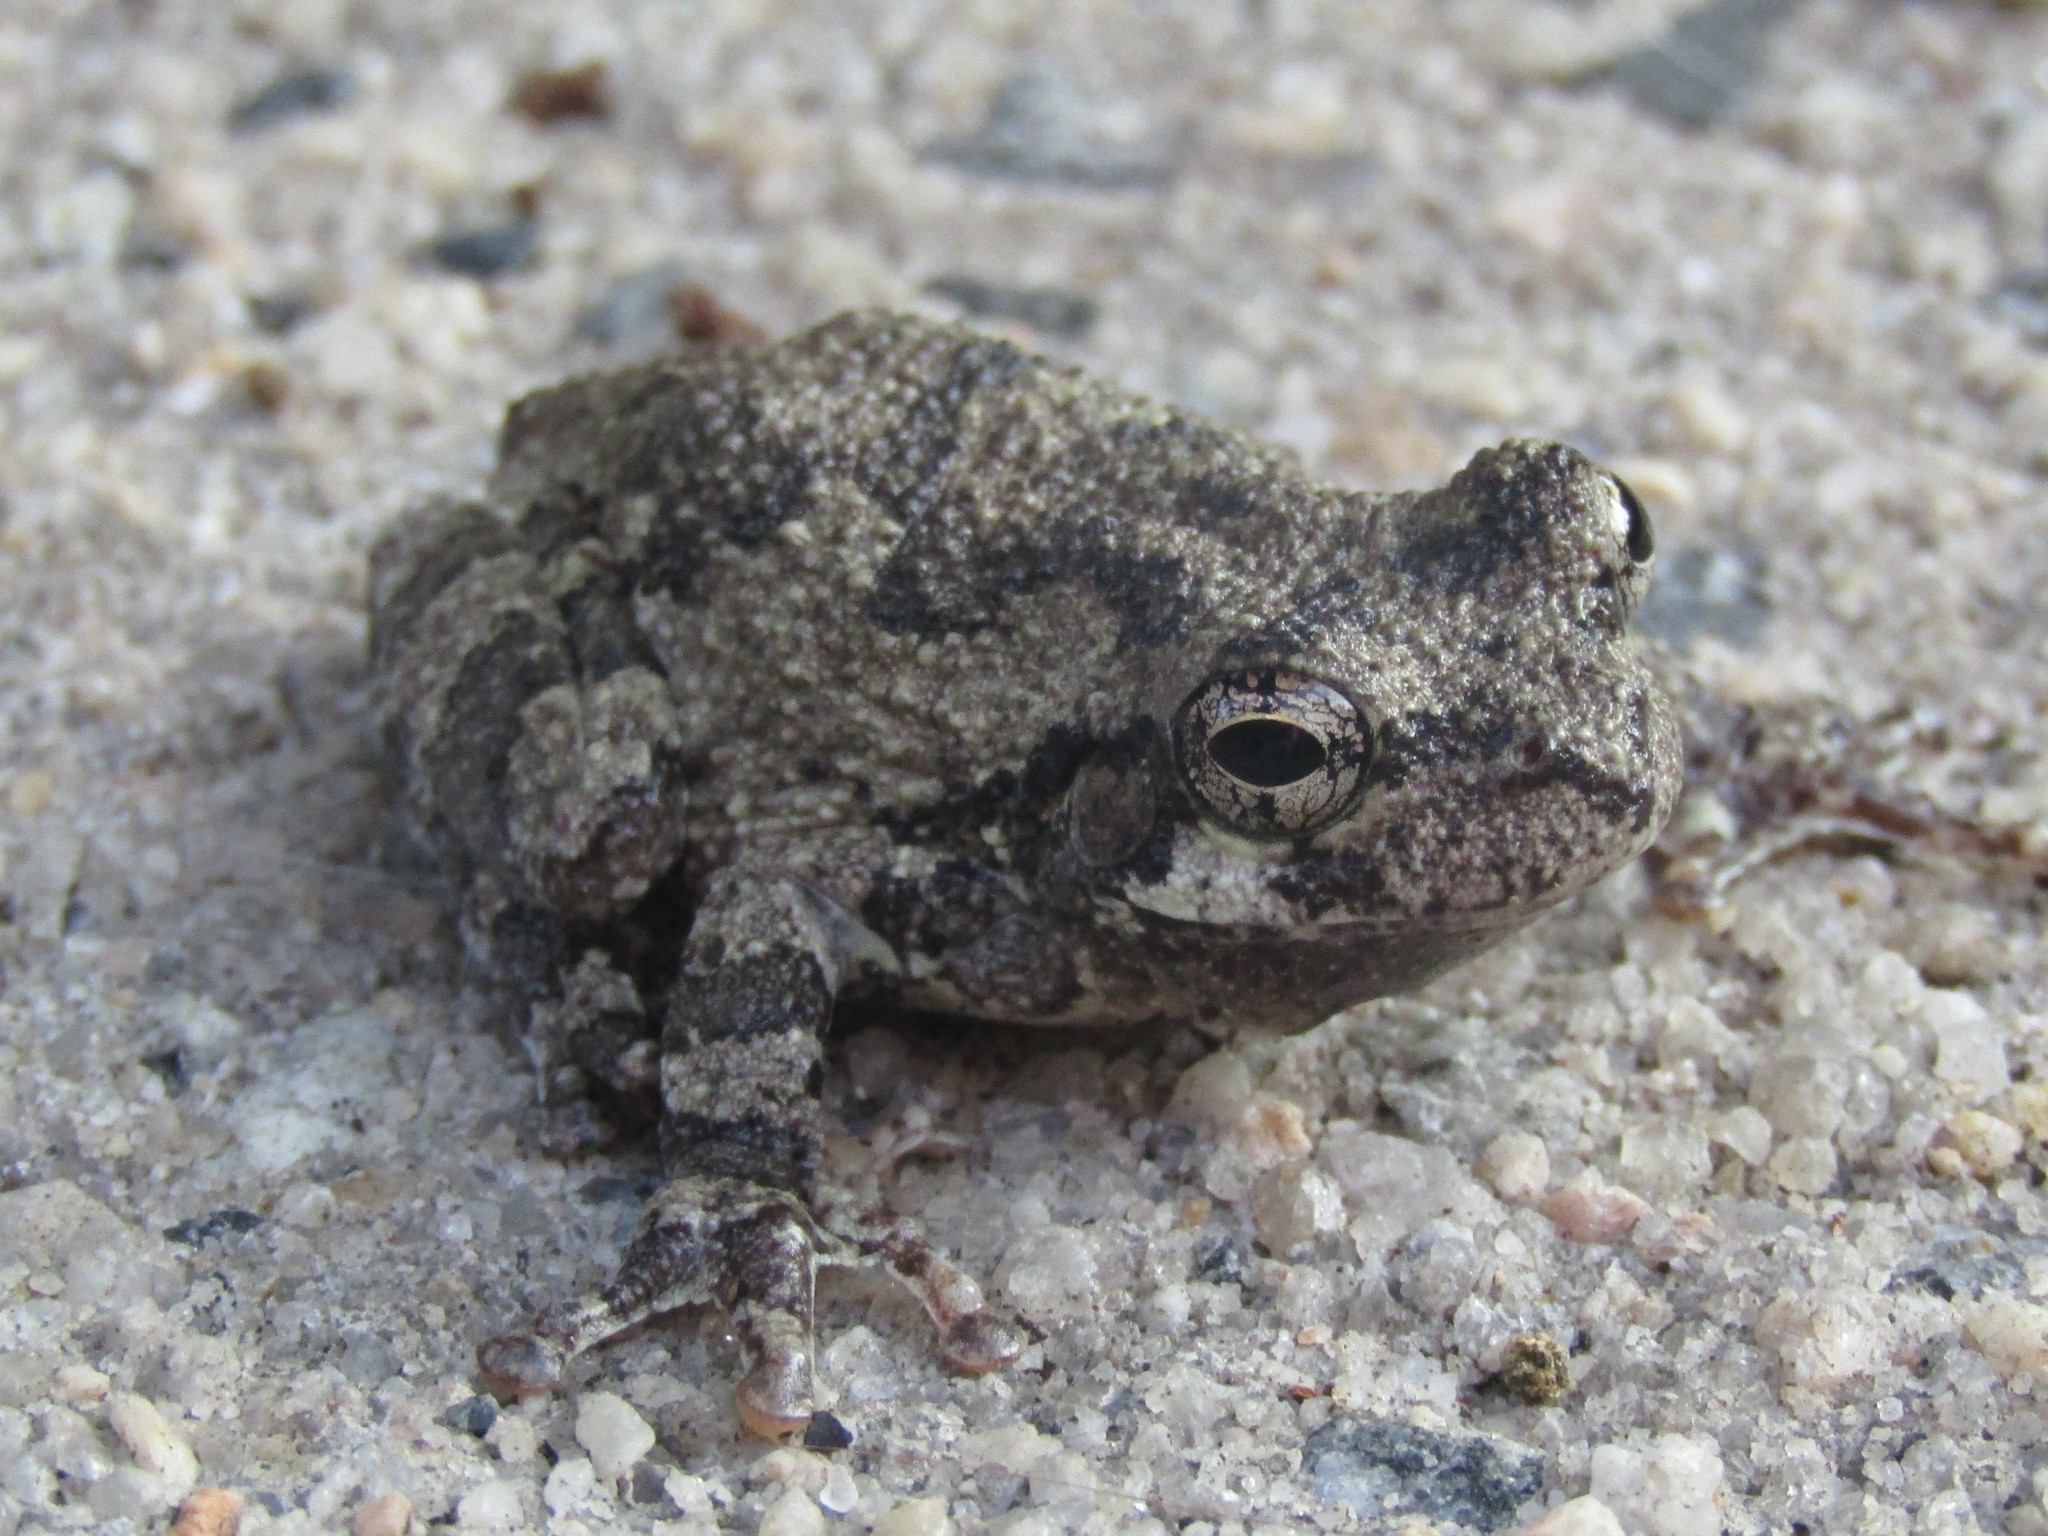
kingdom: Animalia
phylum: Chordata
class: Amphibia
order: Anura
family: Hylidae
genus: Dryophytes
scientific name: Dryophytes chrysoscelis
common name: Cope's gray treefrog
